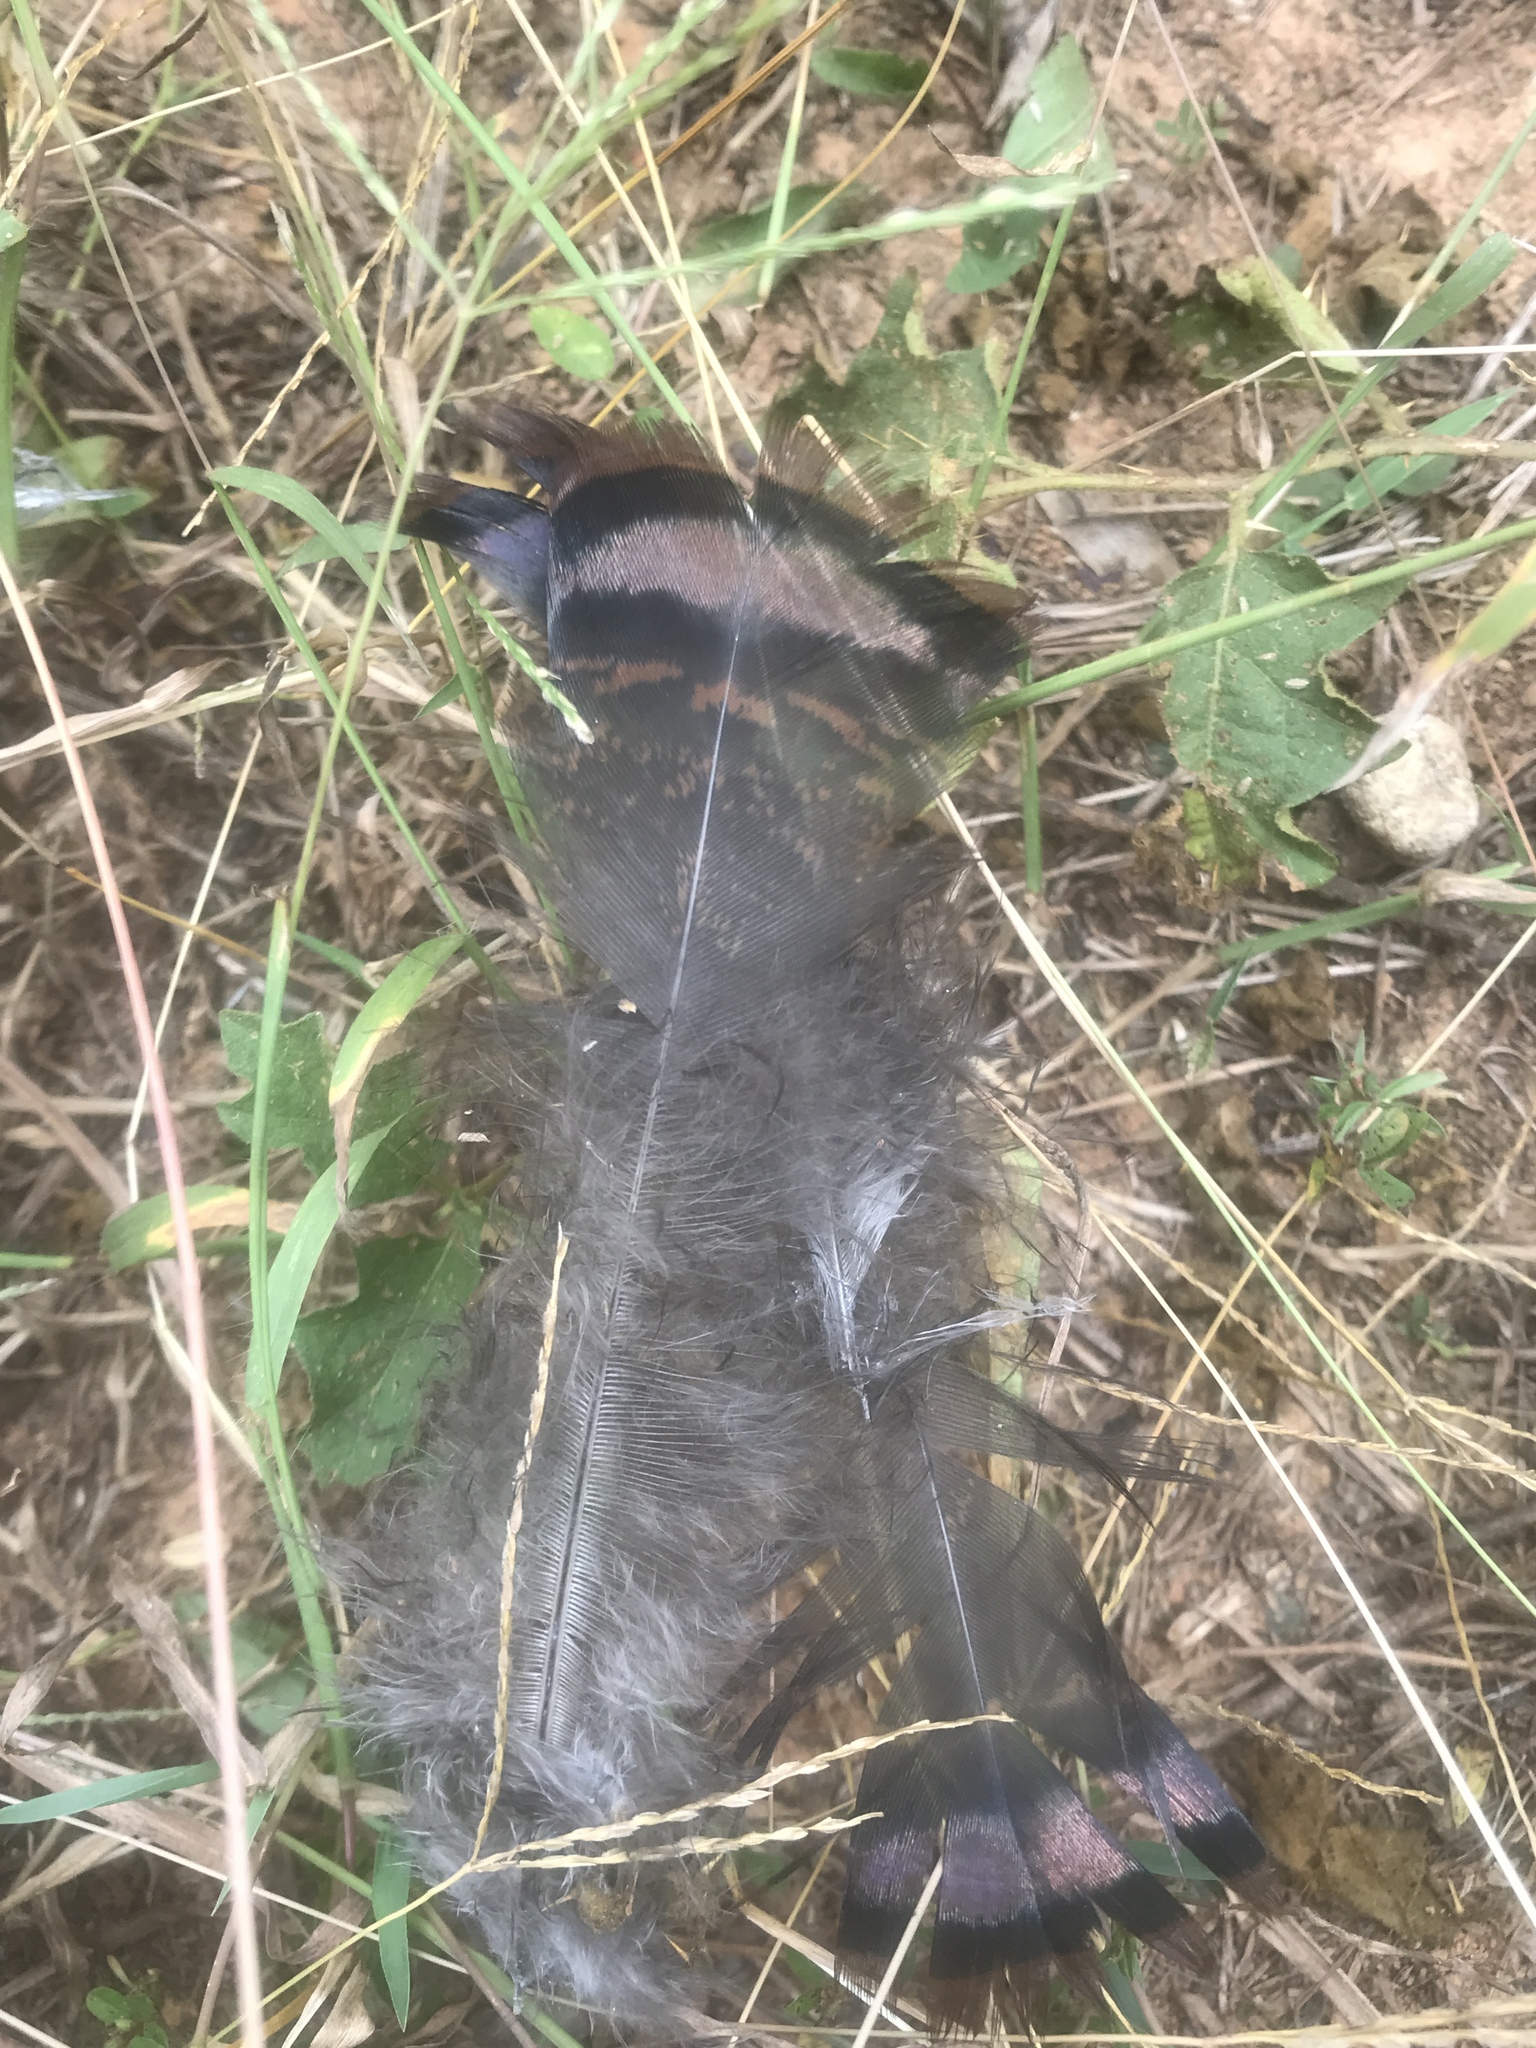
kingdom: Animalia
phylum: Chordata
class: Aves
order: Galliformes
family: Phasianidae
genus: Meleagris
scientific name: Meleagris gallopavo
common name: Wild turkey
